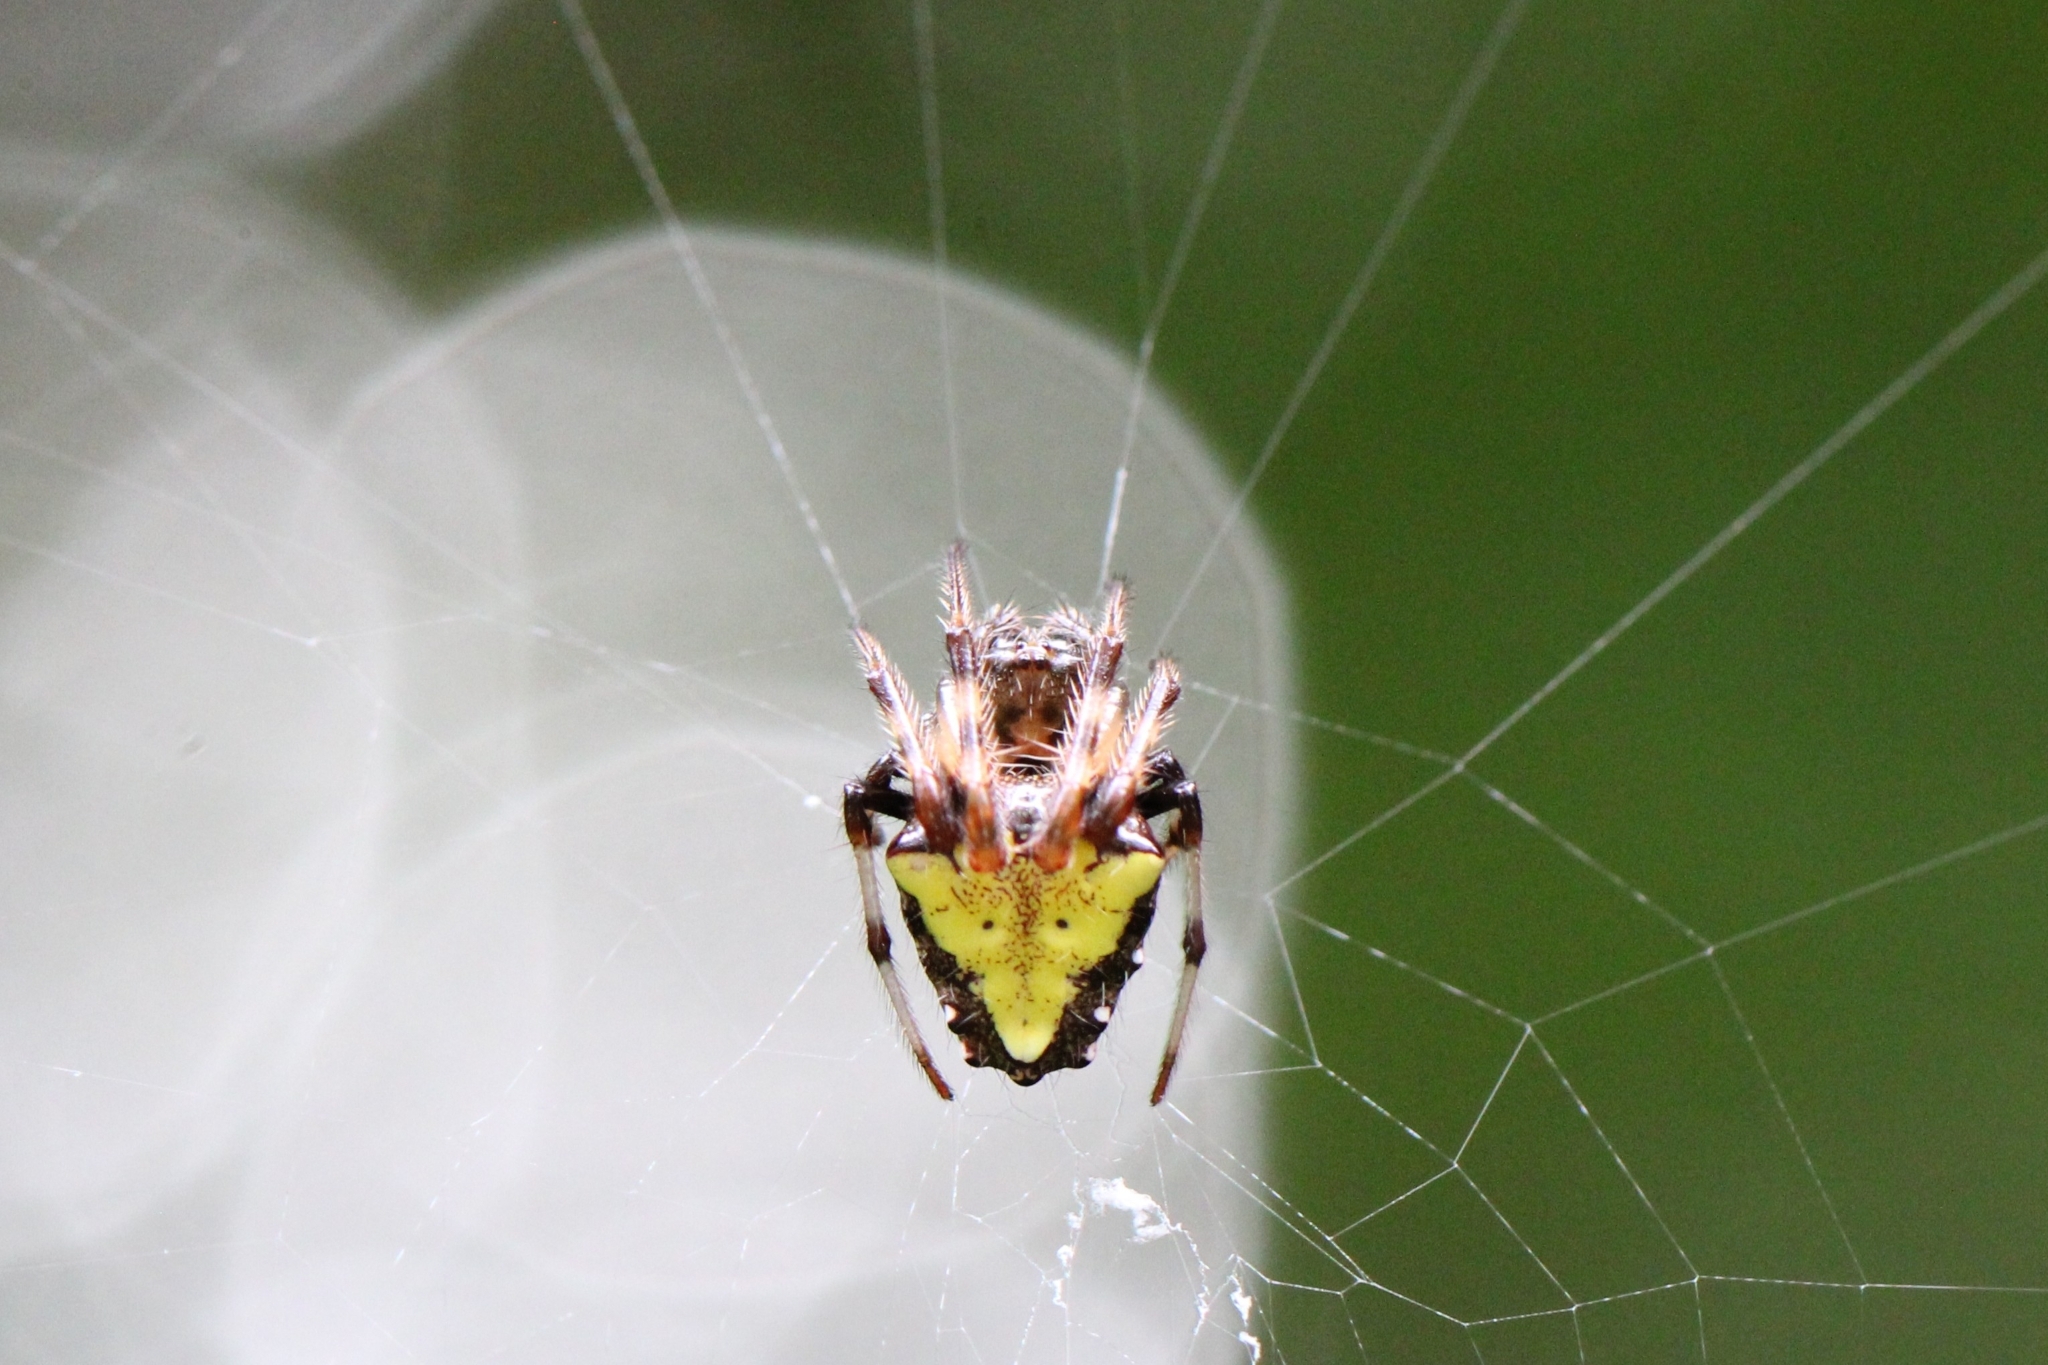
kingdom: Animalia
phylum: Arthropoda
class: Arachnida
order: Araneae
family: Araneidae
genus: Verrucosa
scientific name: Verrucosa arenata
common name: Orb weavers
